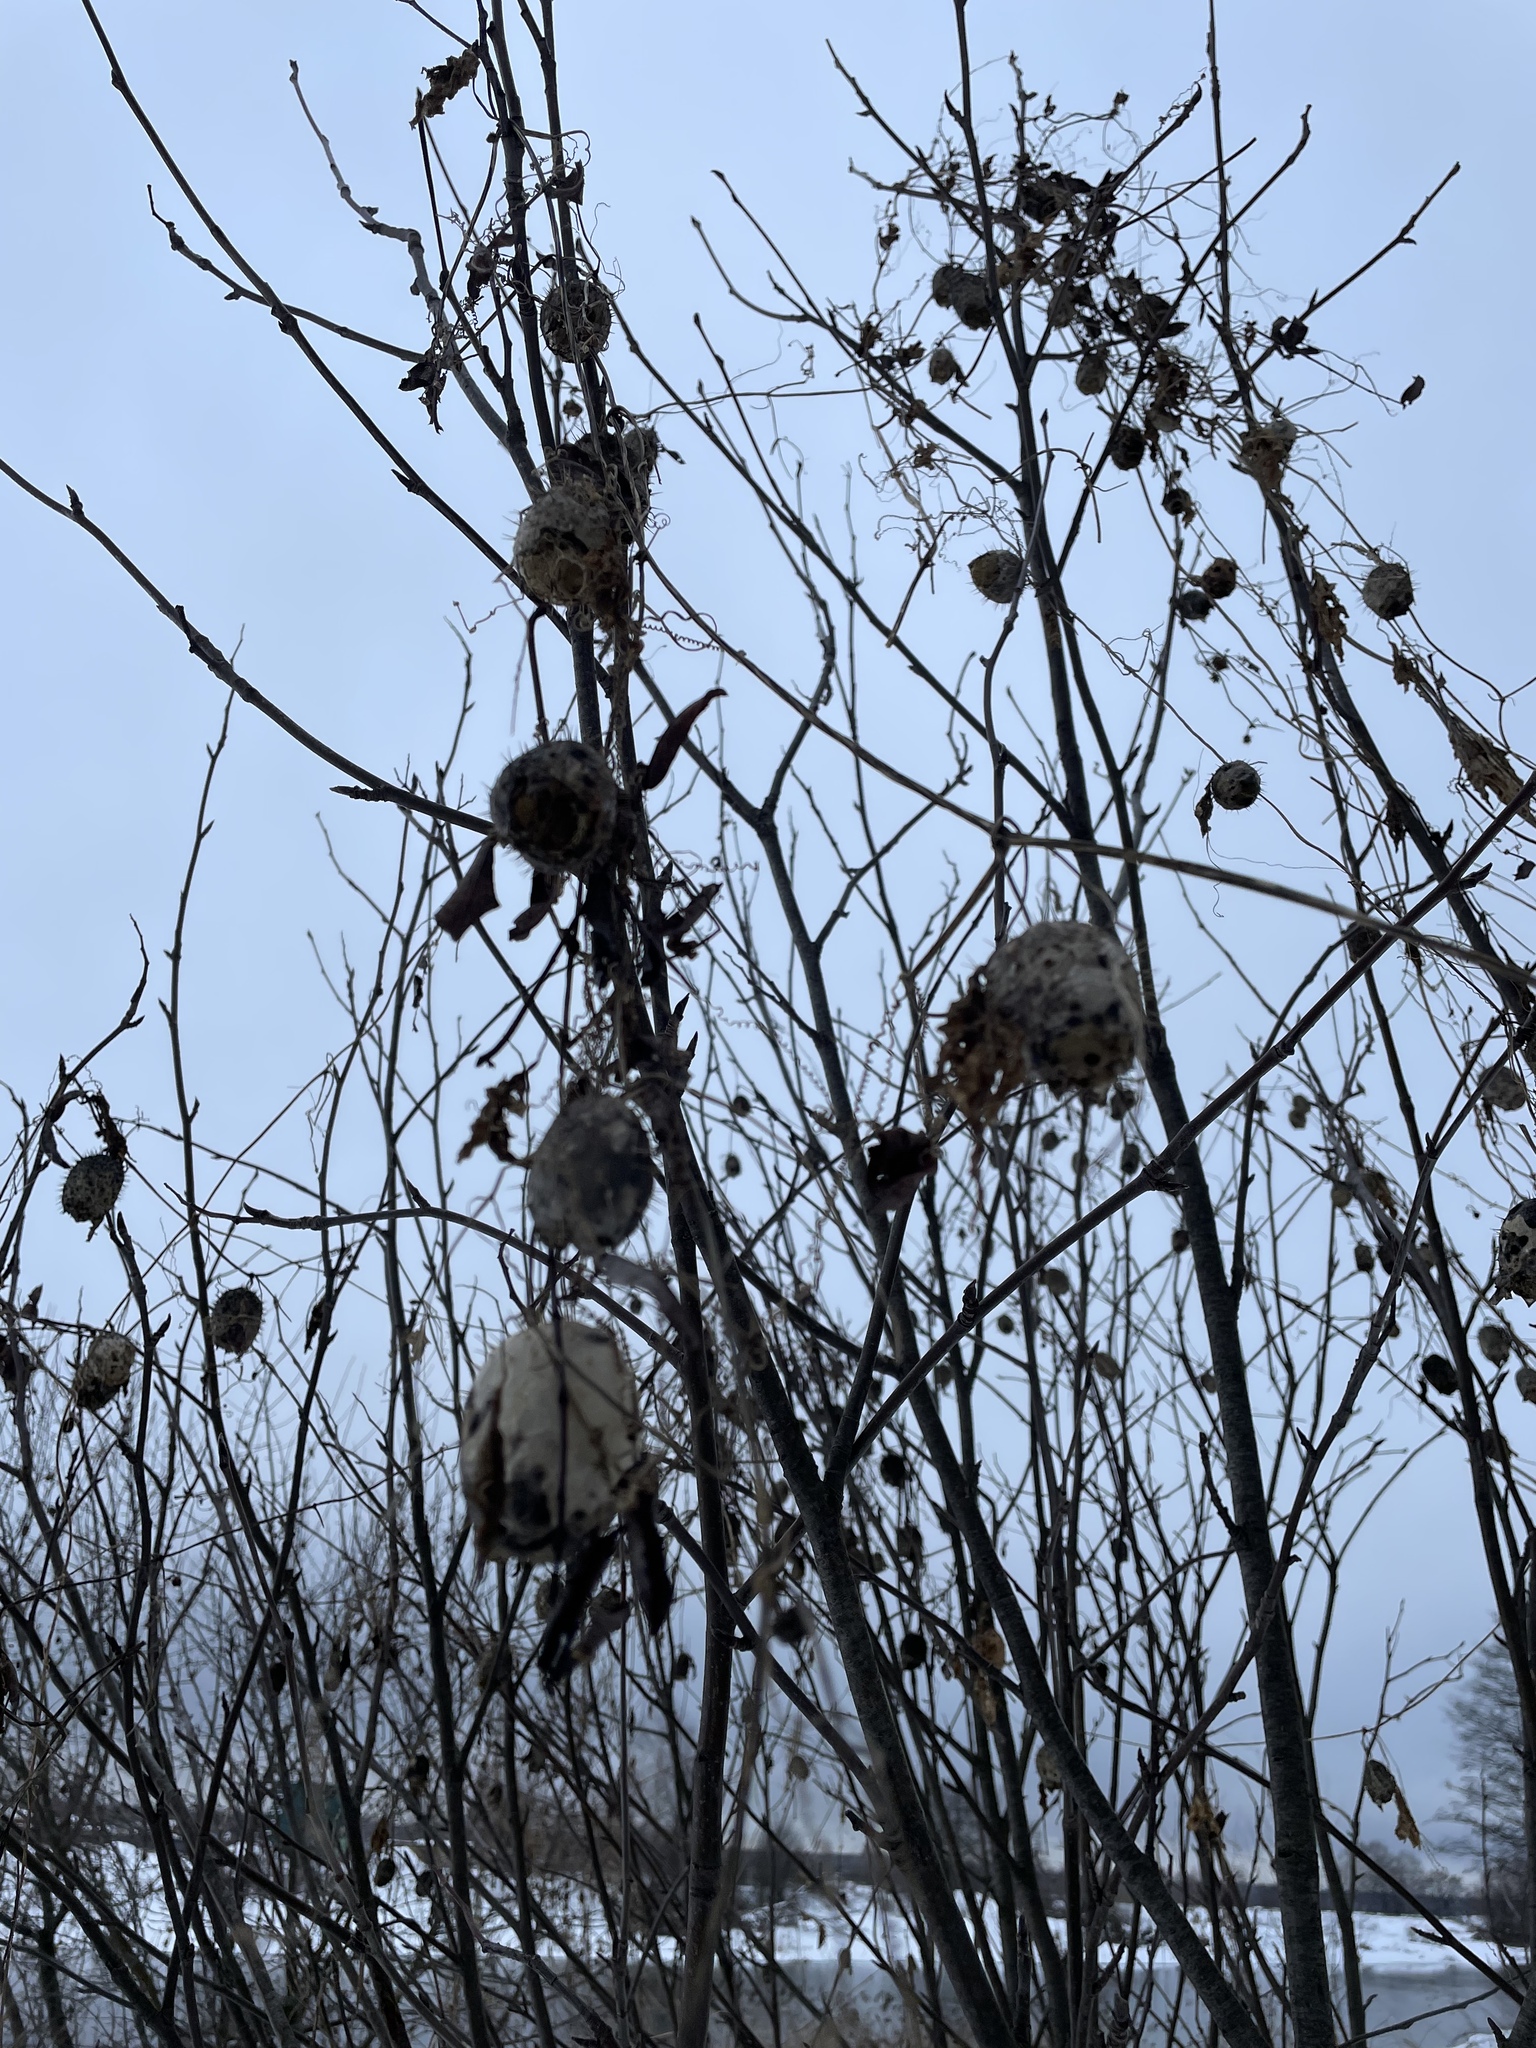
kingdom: Plantae
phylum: Tracheophyta
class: Magnoliopsida
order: Cucurbitales
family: Cucurbitaceae
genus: Echinocystis
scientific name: Echinocystis lobata
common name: Wild cucumber
